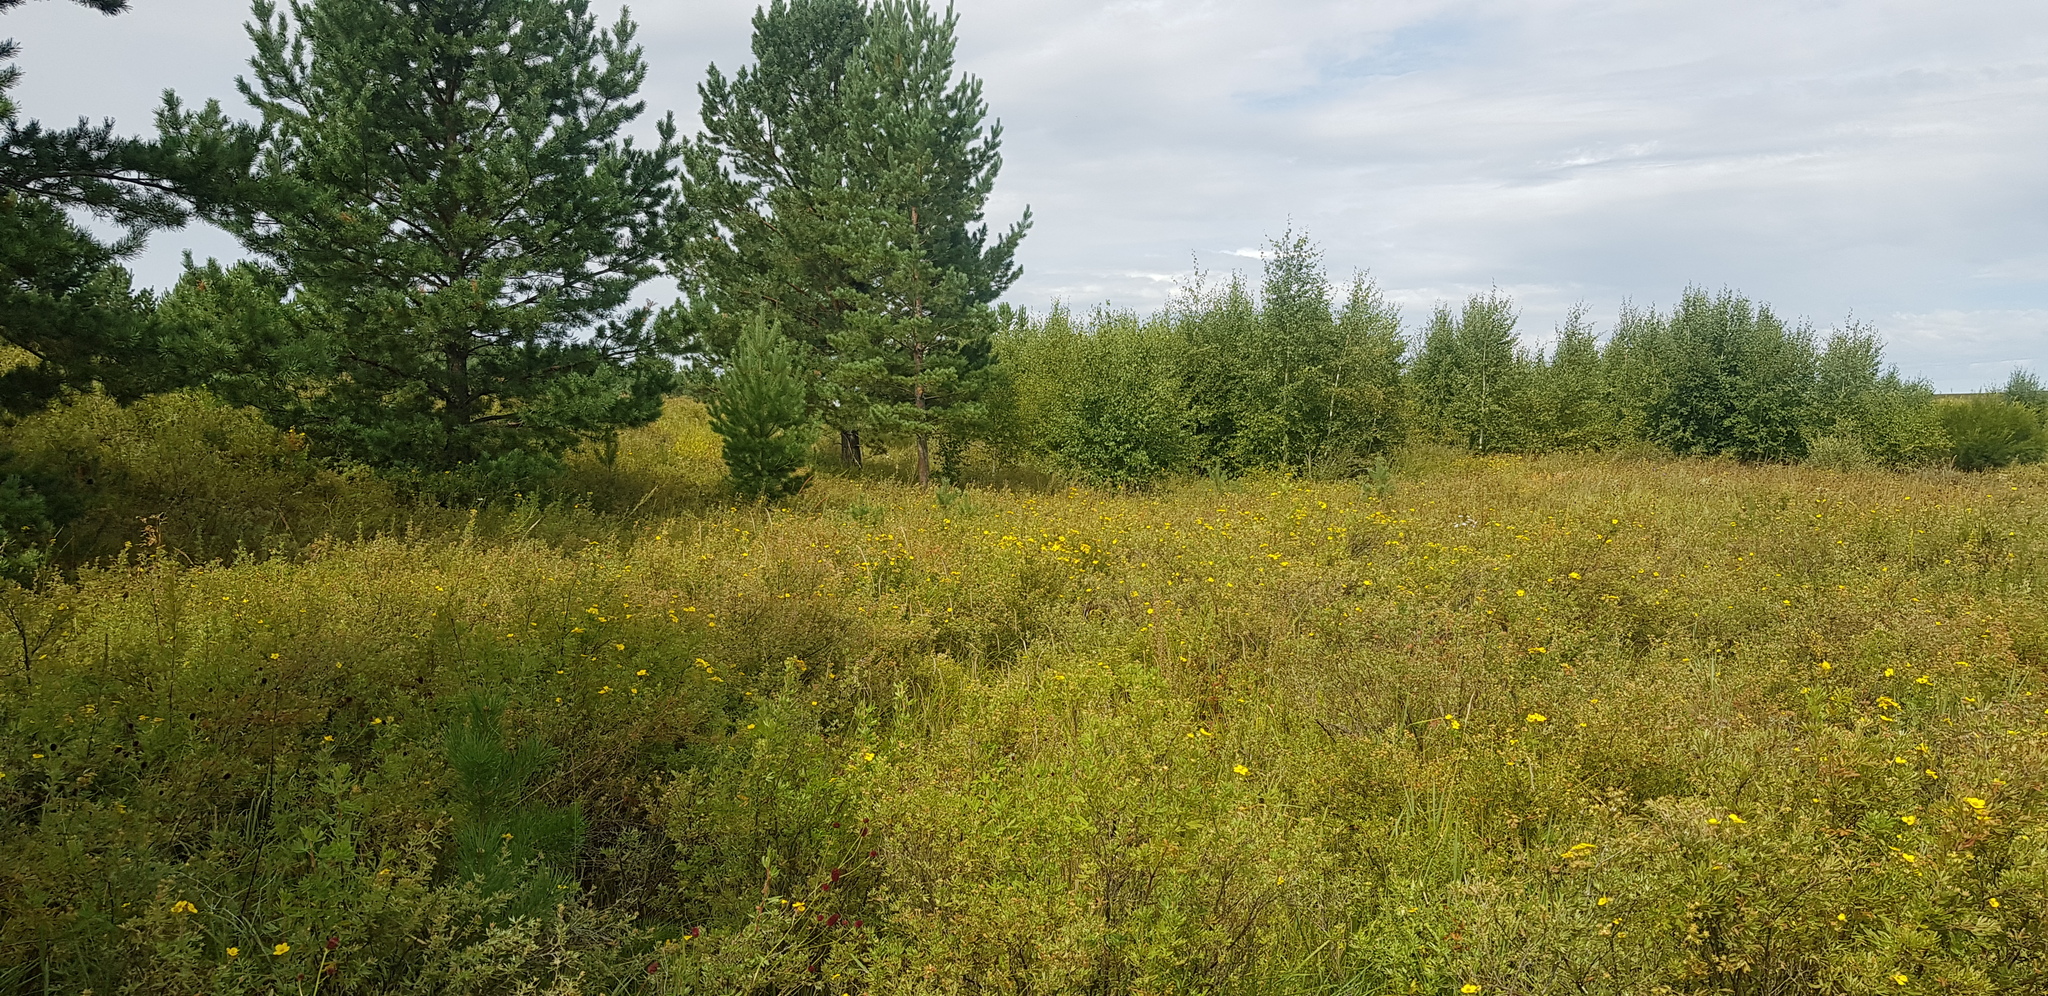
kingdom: Plantae
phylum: Tracheophyta
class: Magnoliopsida
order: Rosales
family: Rosaceae
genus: Dasiphora
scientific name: Dasiphora parvifolia
